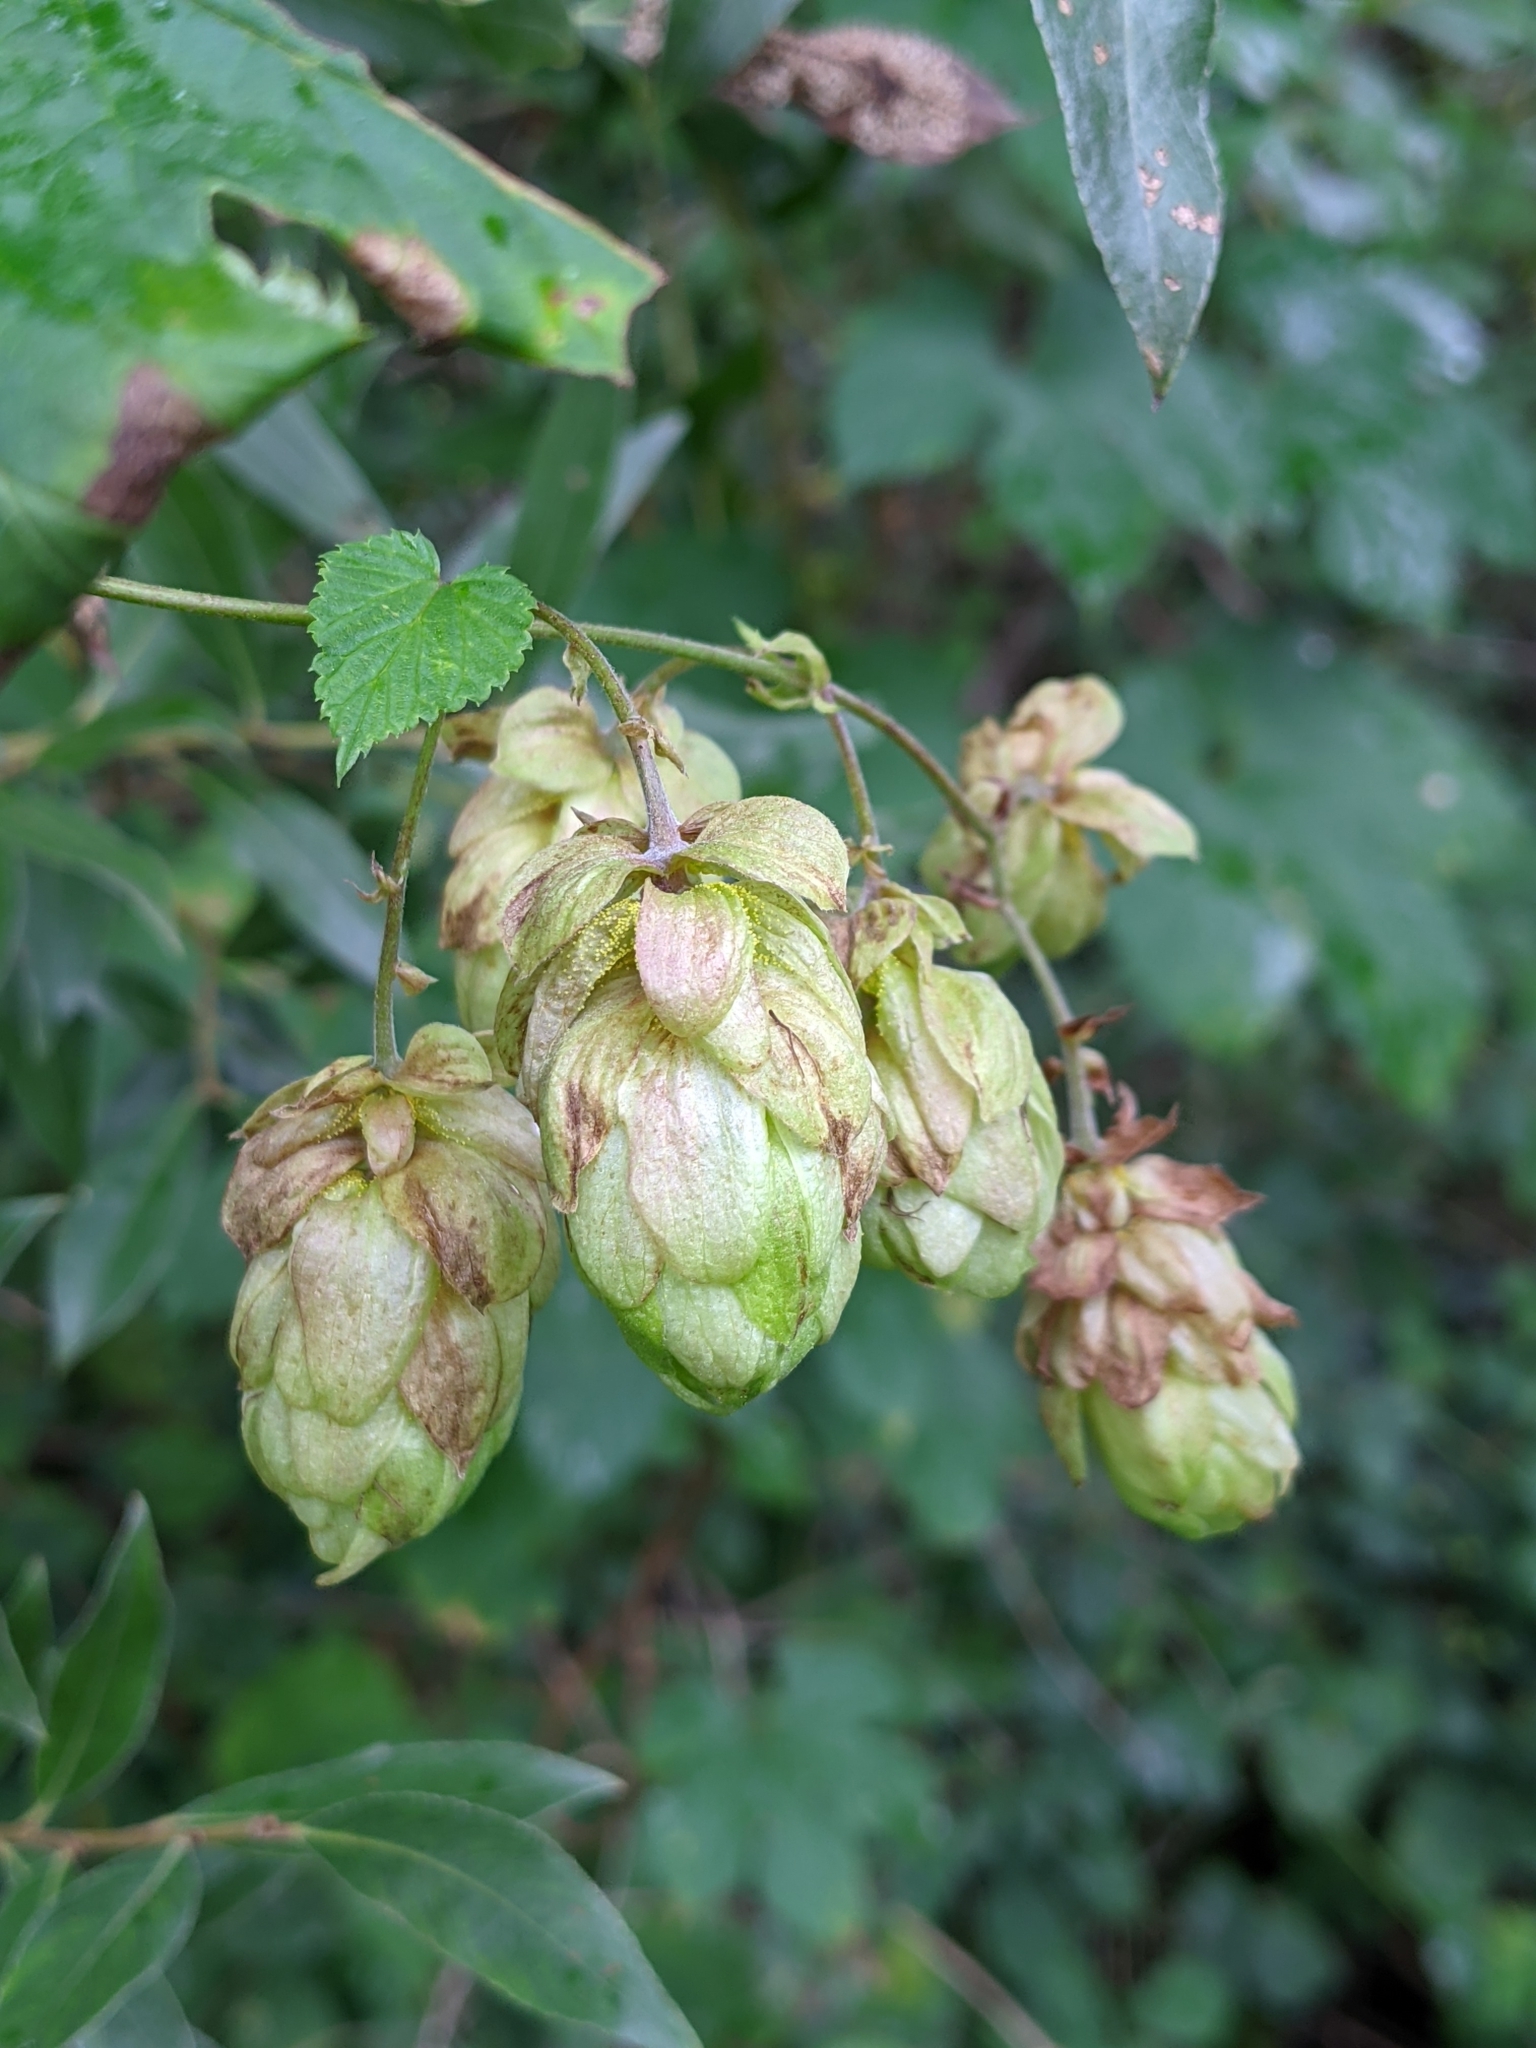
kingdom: Plantae
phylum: Tracheophyta
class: Magnoliopsida
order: Rosales
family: Cannabaceae
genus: Humulus
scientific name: Humulus lupulus
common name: Hop
